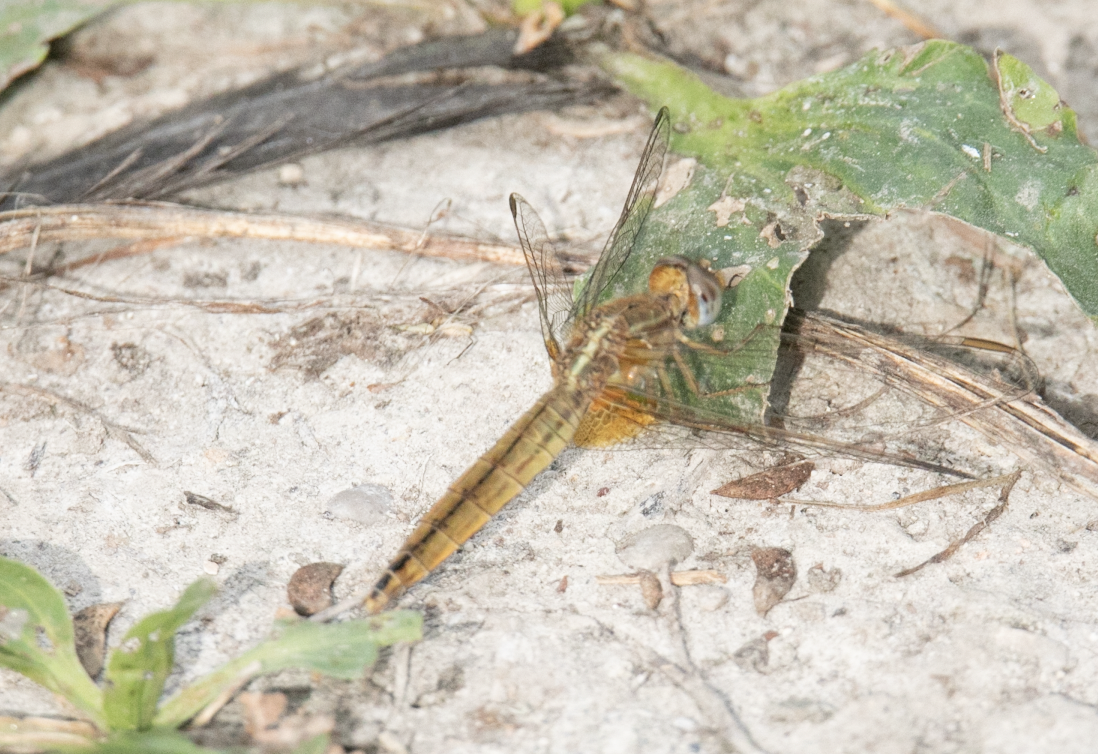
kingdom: Animalia
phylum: Arthropoda
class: Insecta
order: Odonata
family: Libellulidae
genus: Crocothemis
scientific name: Crocothemis erythraea
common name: Scarlet dragonfly
